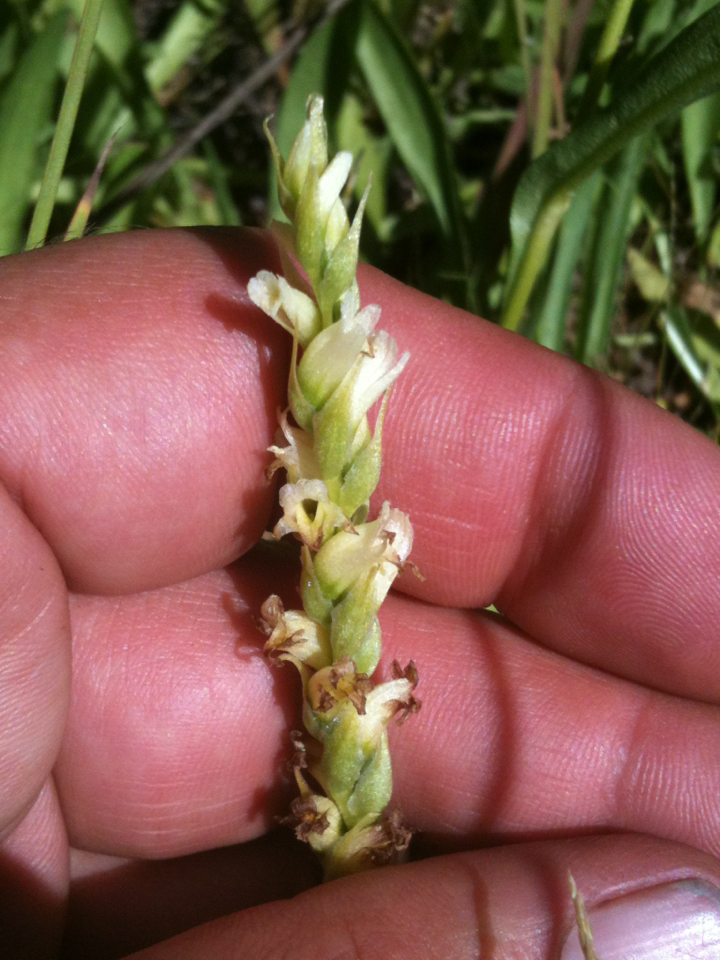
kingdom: Plantae
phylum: Tracheophyta
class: Liliopsida
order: Asparagales
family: Orchidaceae
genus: Spiranthes
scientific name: Spiranthes stellata
